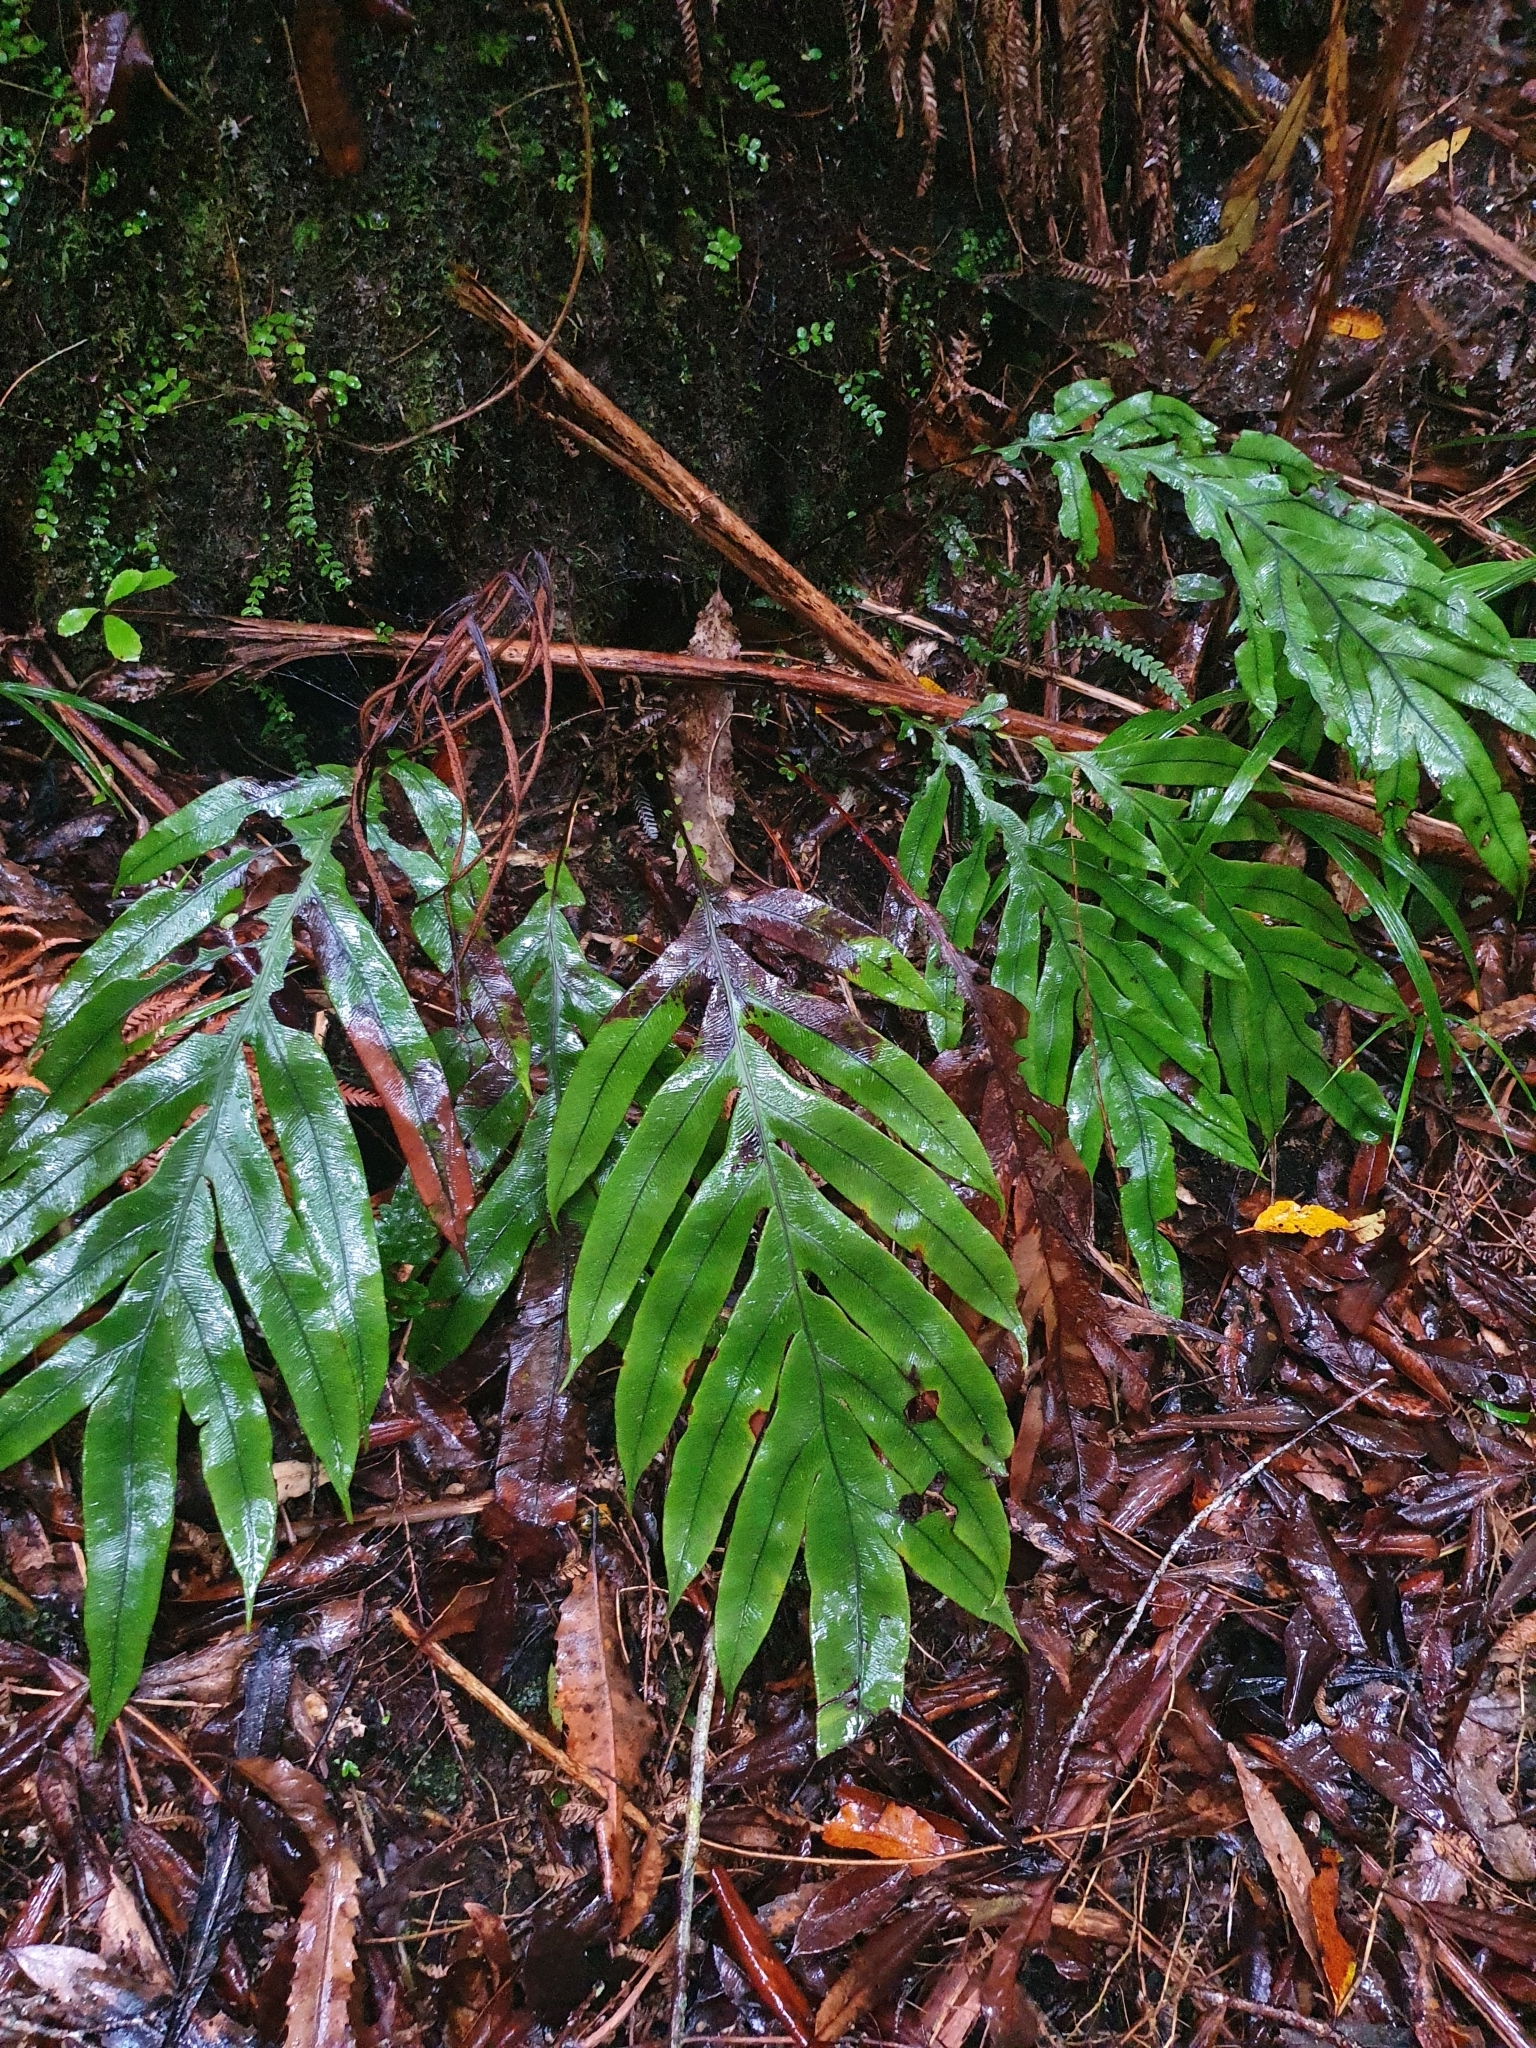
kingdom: Plantae
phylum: Tracheophyta
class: Polypodiopsida
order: Polypodiales
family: Blechnaceae
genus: Austroblechnum
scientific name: Austroblechnum colensoi
